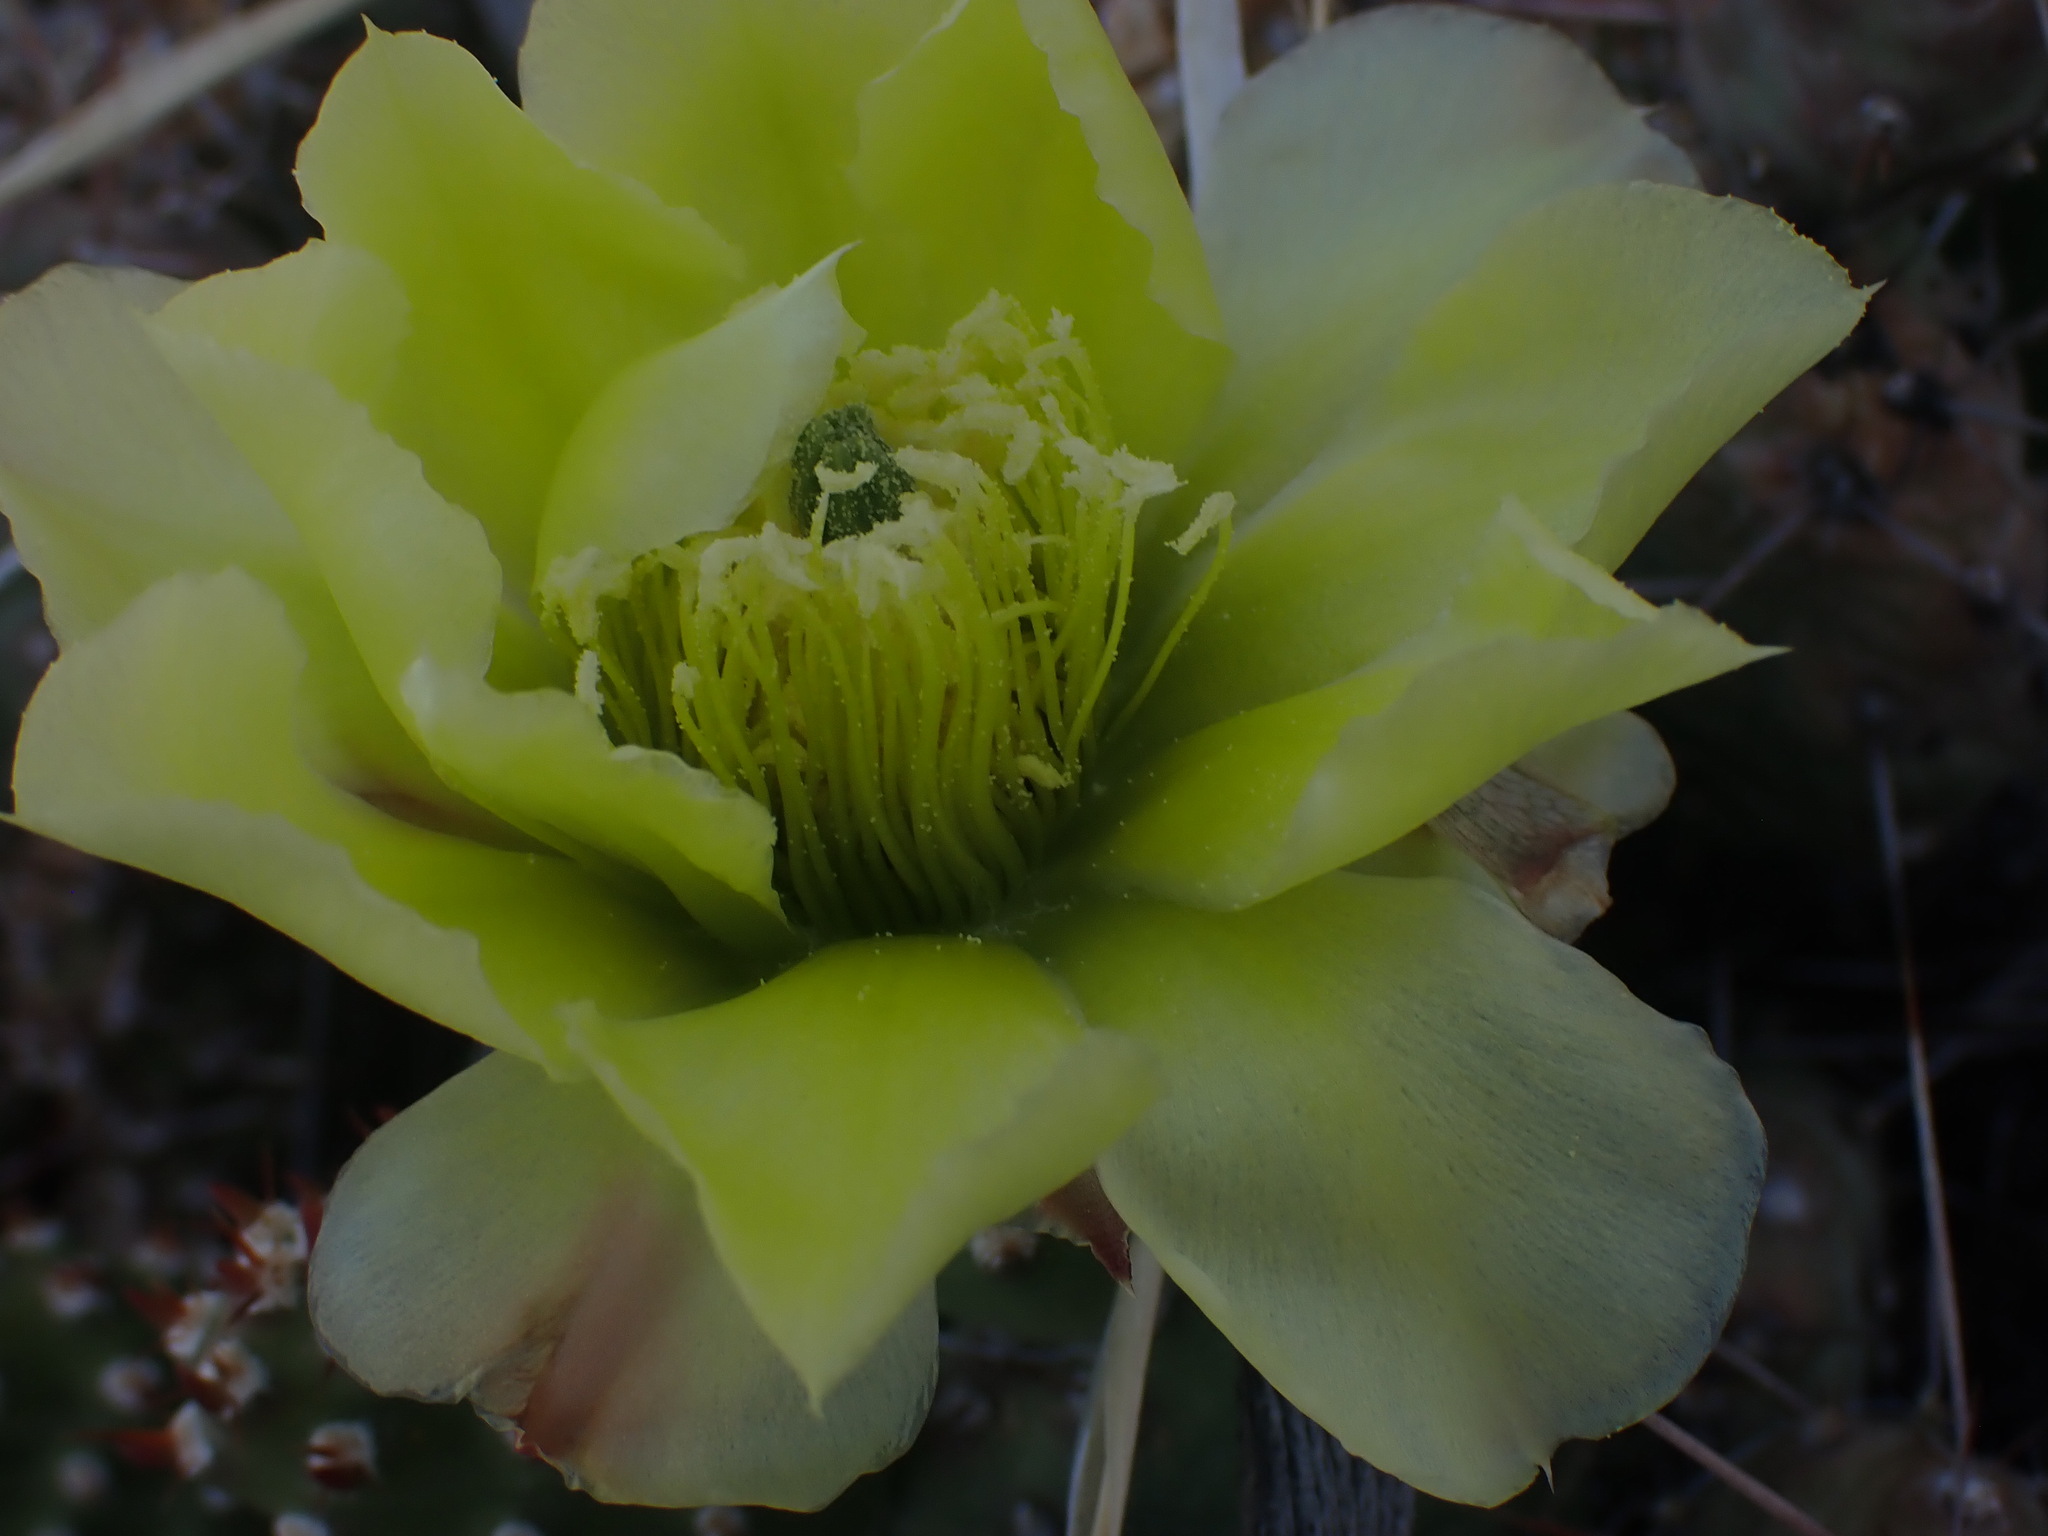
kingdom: Plantae
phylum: Tracheophyta
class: Magnoliopsida
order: Caryophyllales
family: Cactaceae
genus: Opuntia
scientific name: Opuntia fragilis
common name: Brittle cactus
